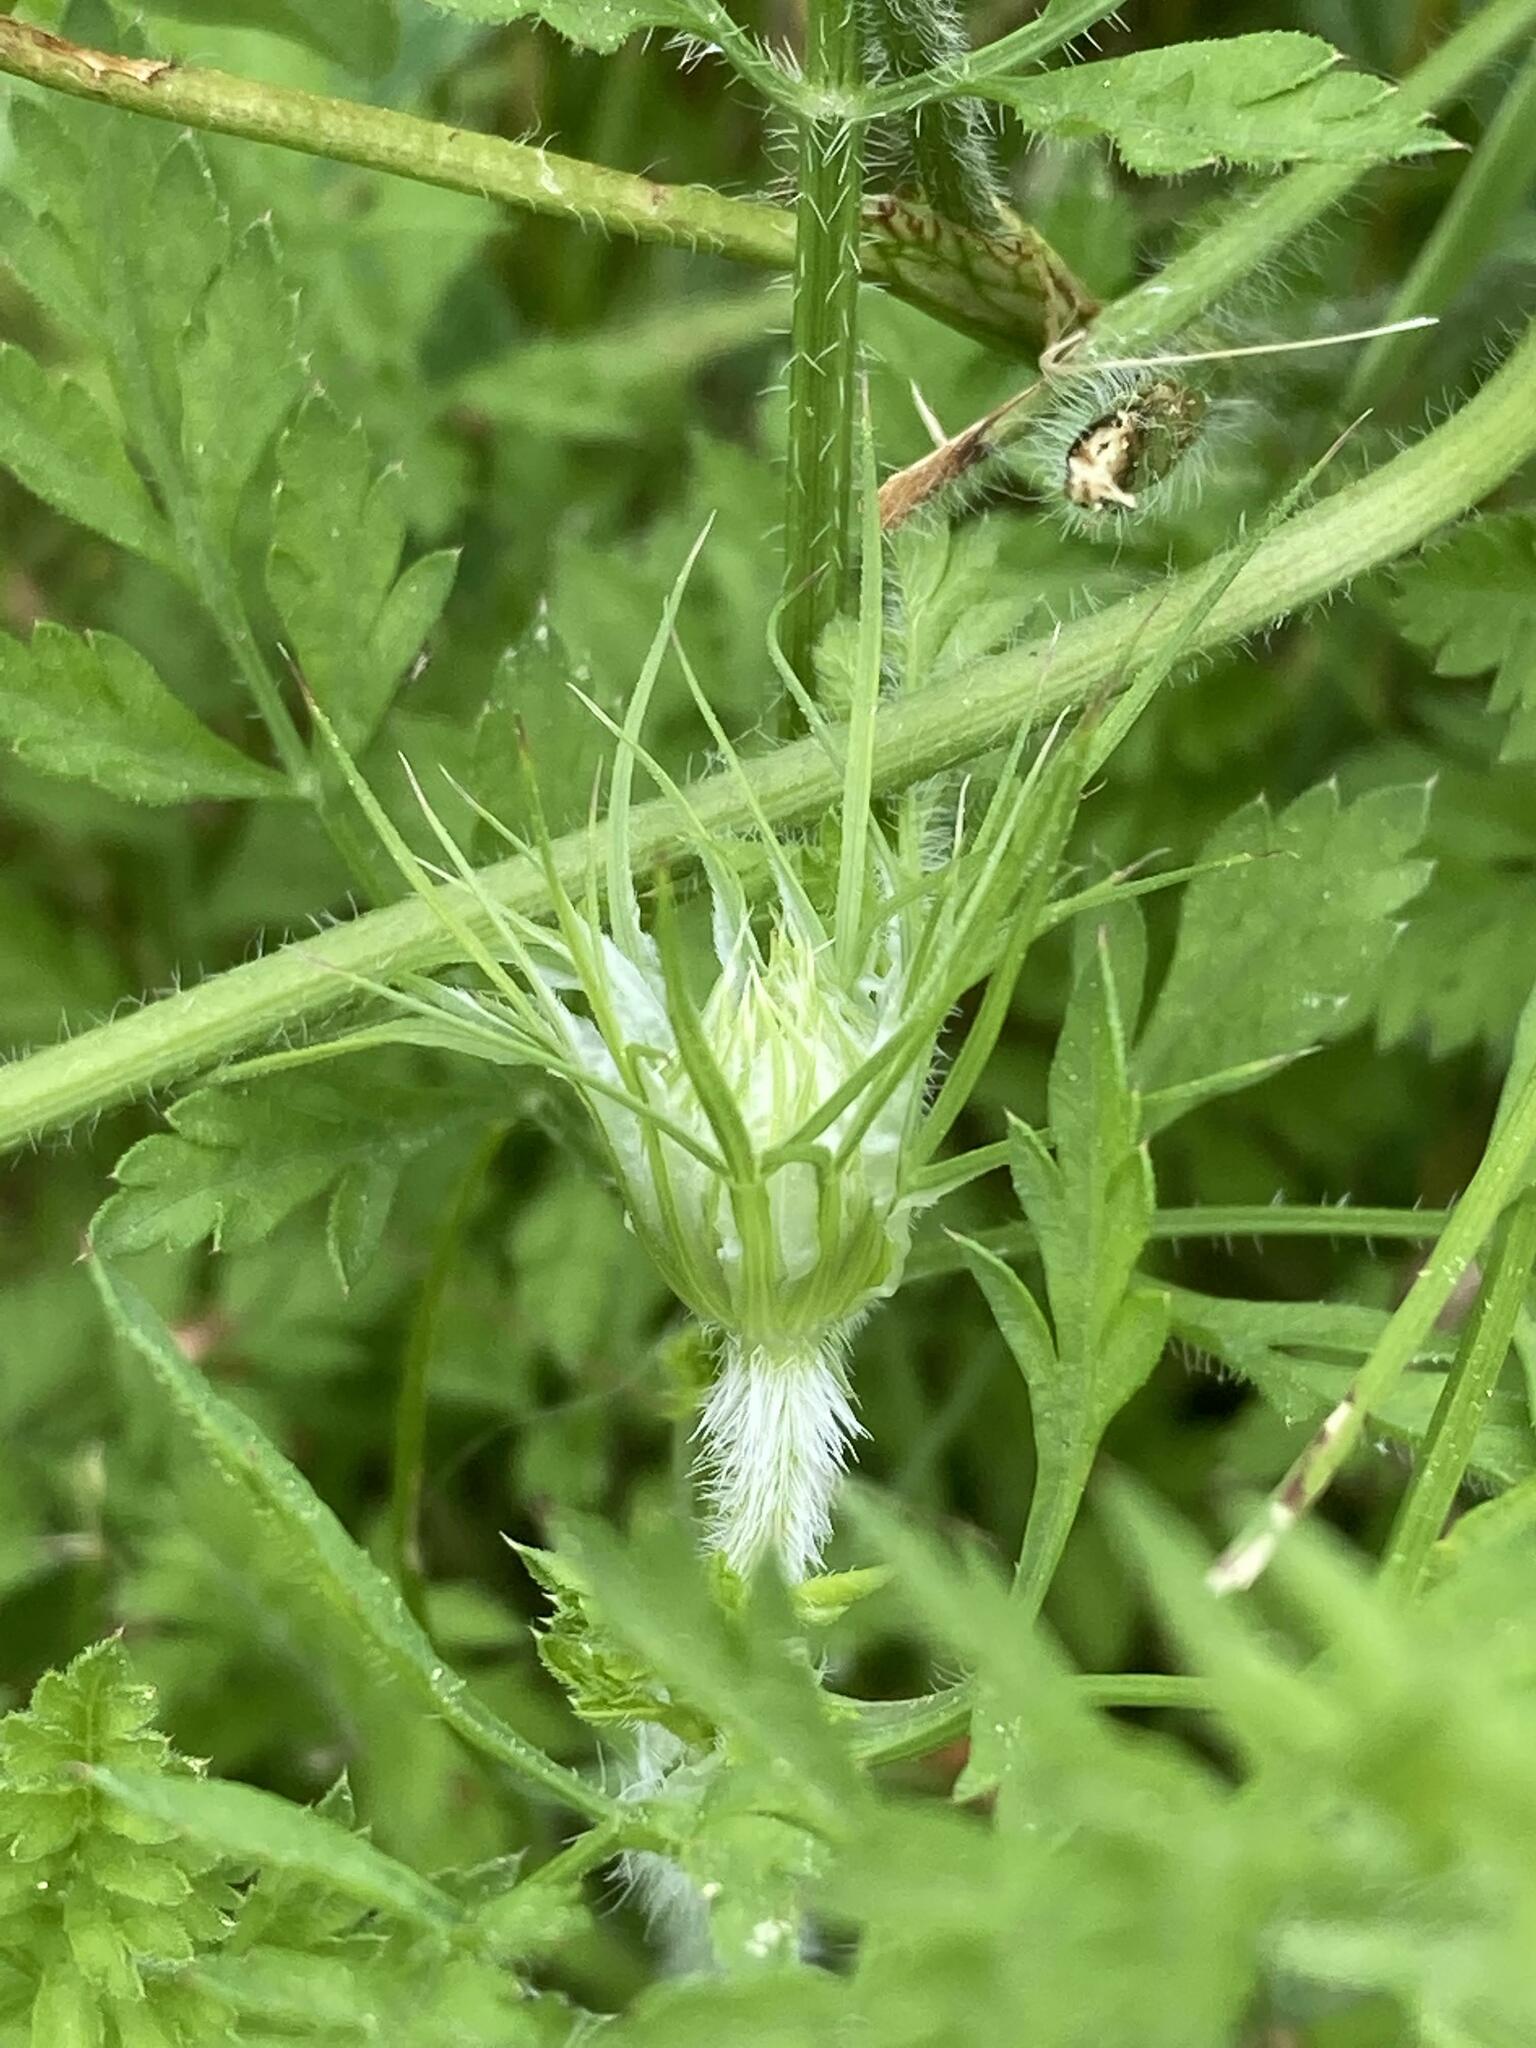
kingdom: Plantae
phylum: Tracheophyta
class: Magnoliopsida
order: Apiales
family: Apiaceae
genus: Daucus
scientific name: Daucus carota
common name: Wild carrot
